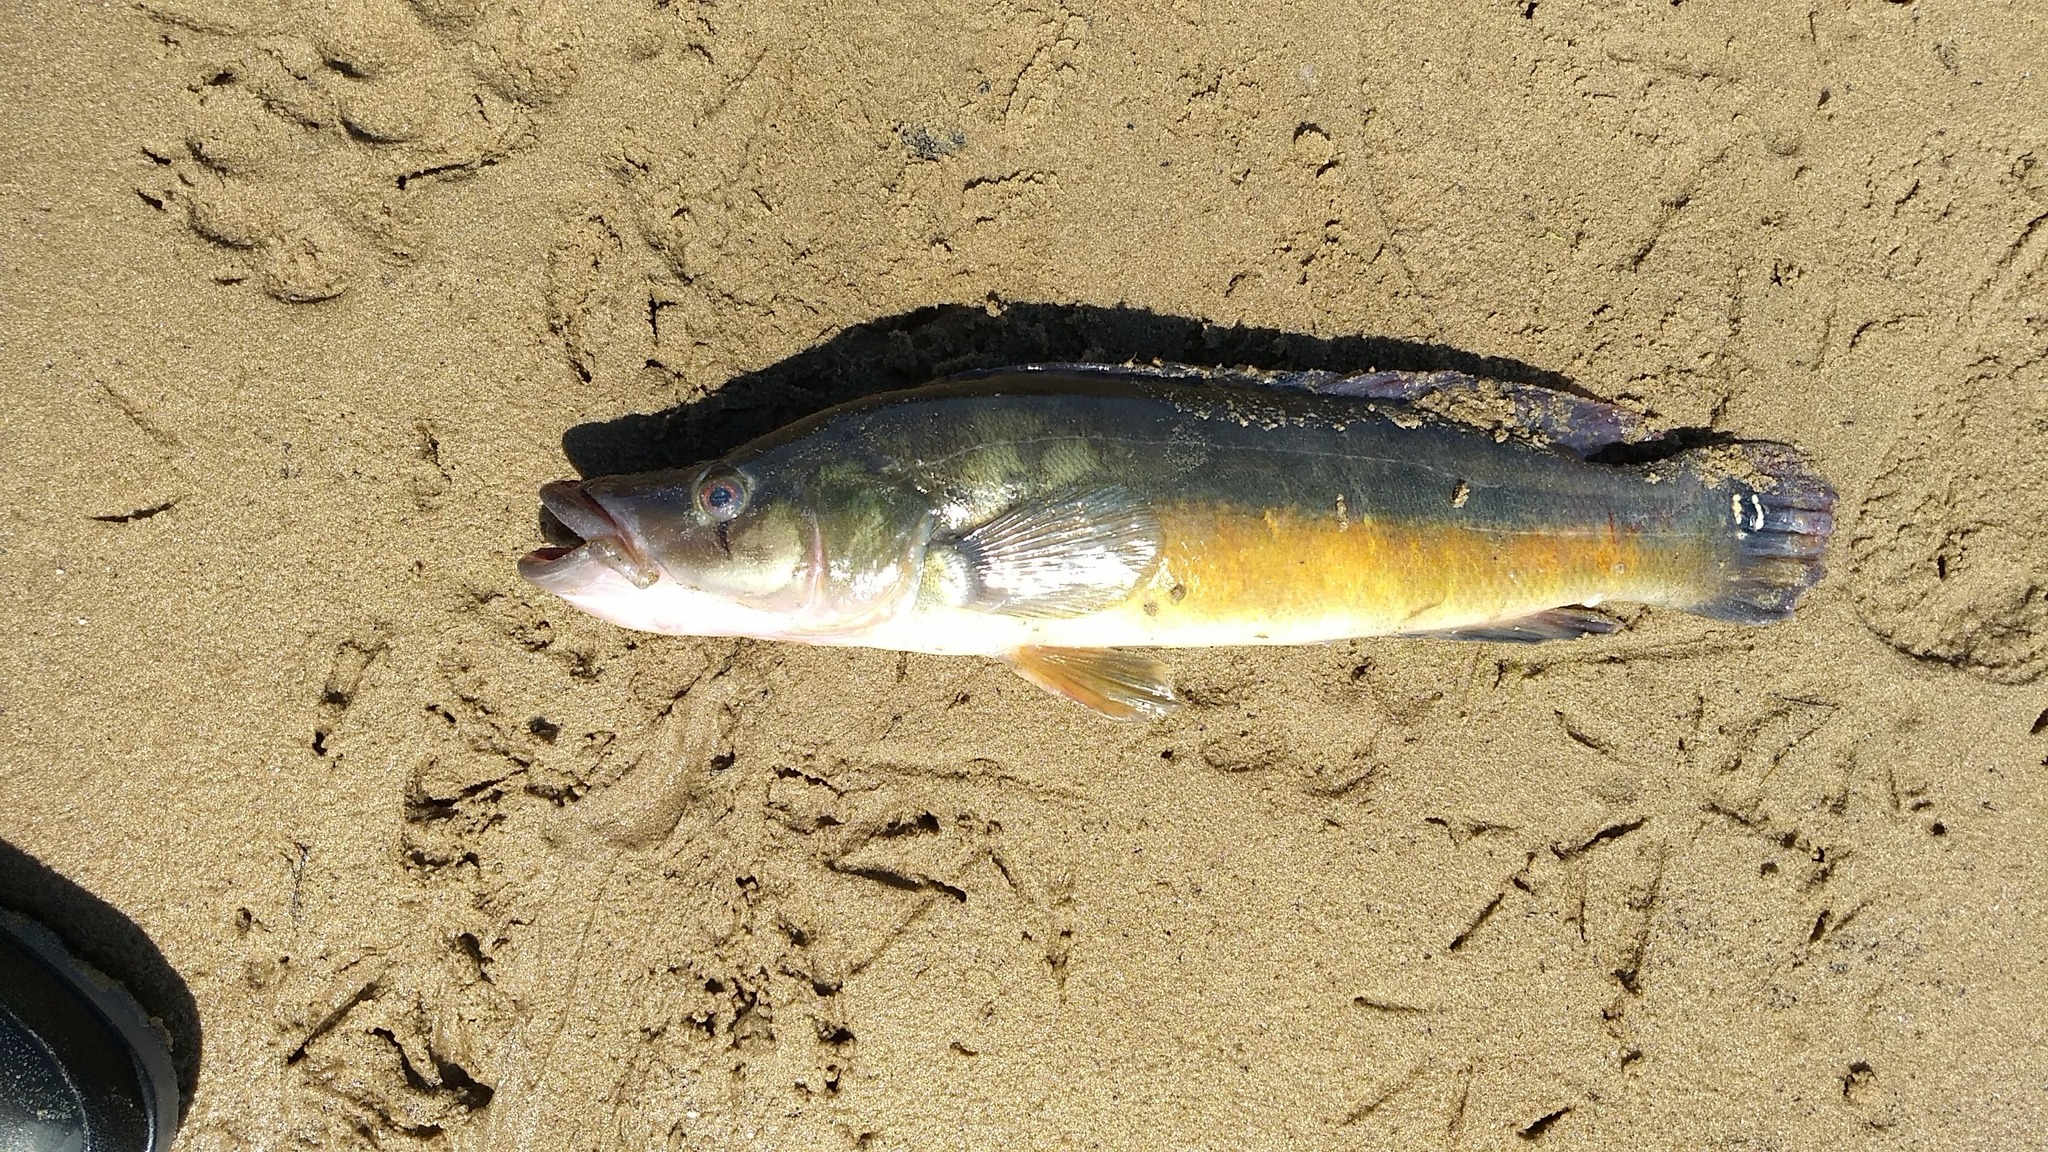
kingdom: Animalia
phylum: Chordata
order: Perciformes
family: Cichlidae
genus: Crenicichla
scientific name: Crenicichla vittata
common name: Pike cichlid
